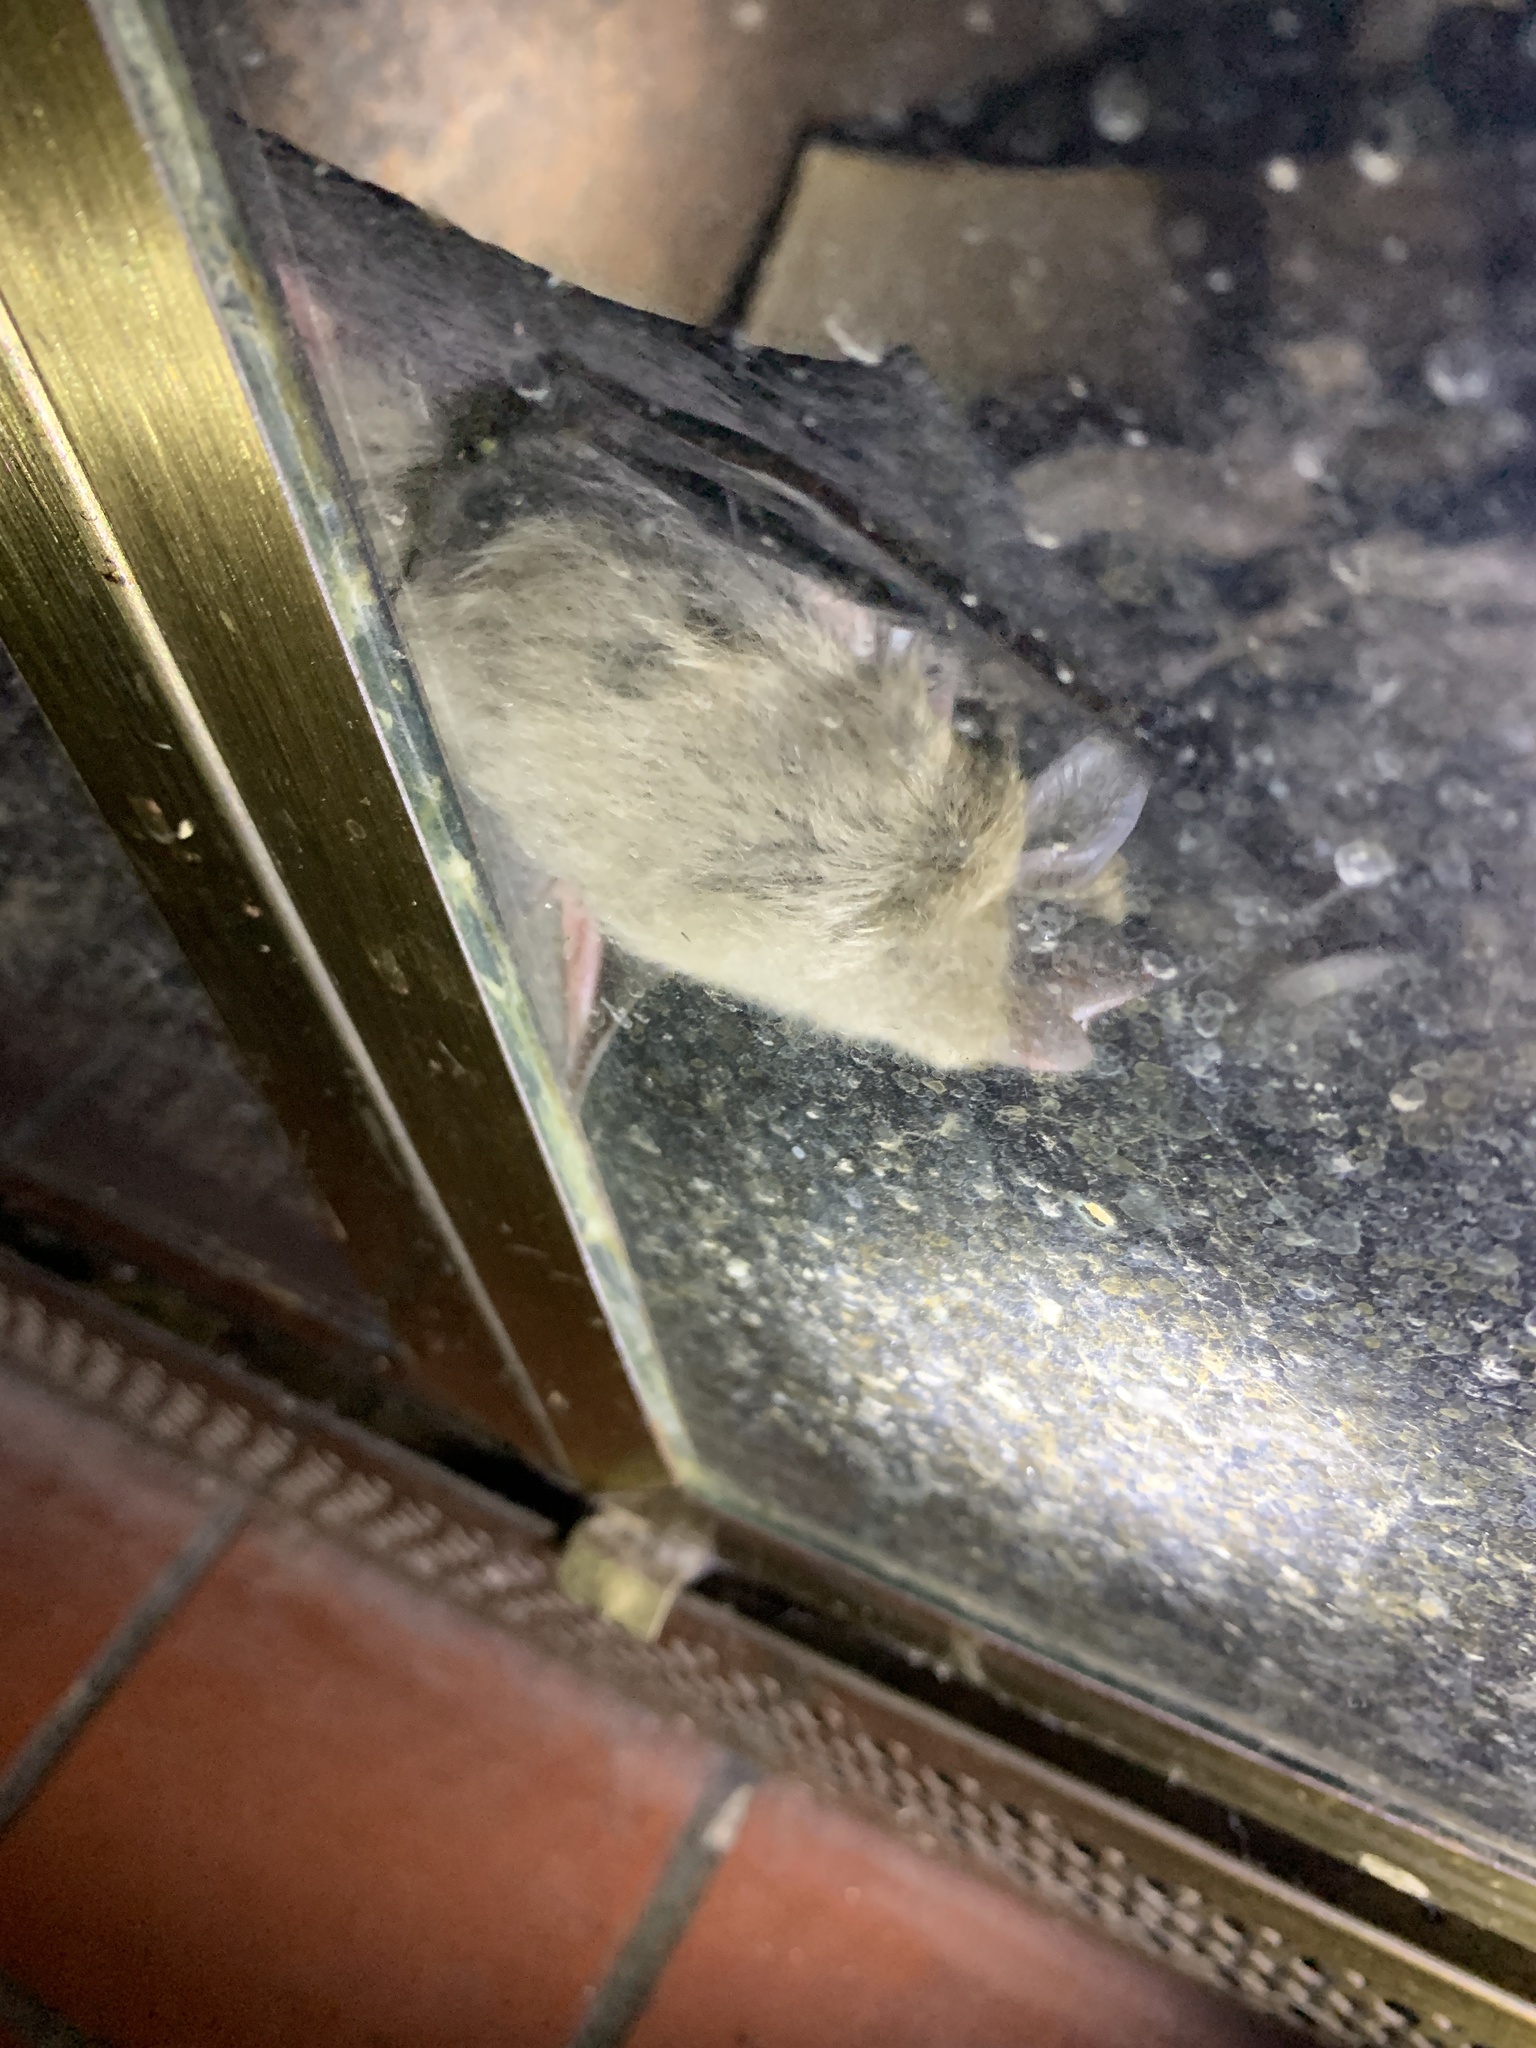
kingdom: Animalia
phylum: Chordata
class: Mammalia
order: Chiroptera
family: Vespertilionidae
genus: Eptesicus
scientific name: Eptesicus fuscus
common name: Big brown bat
